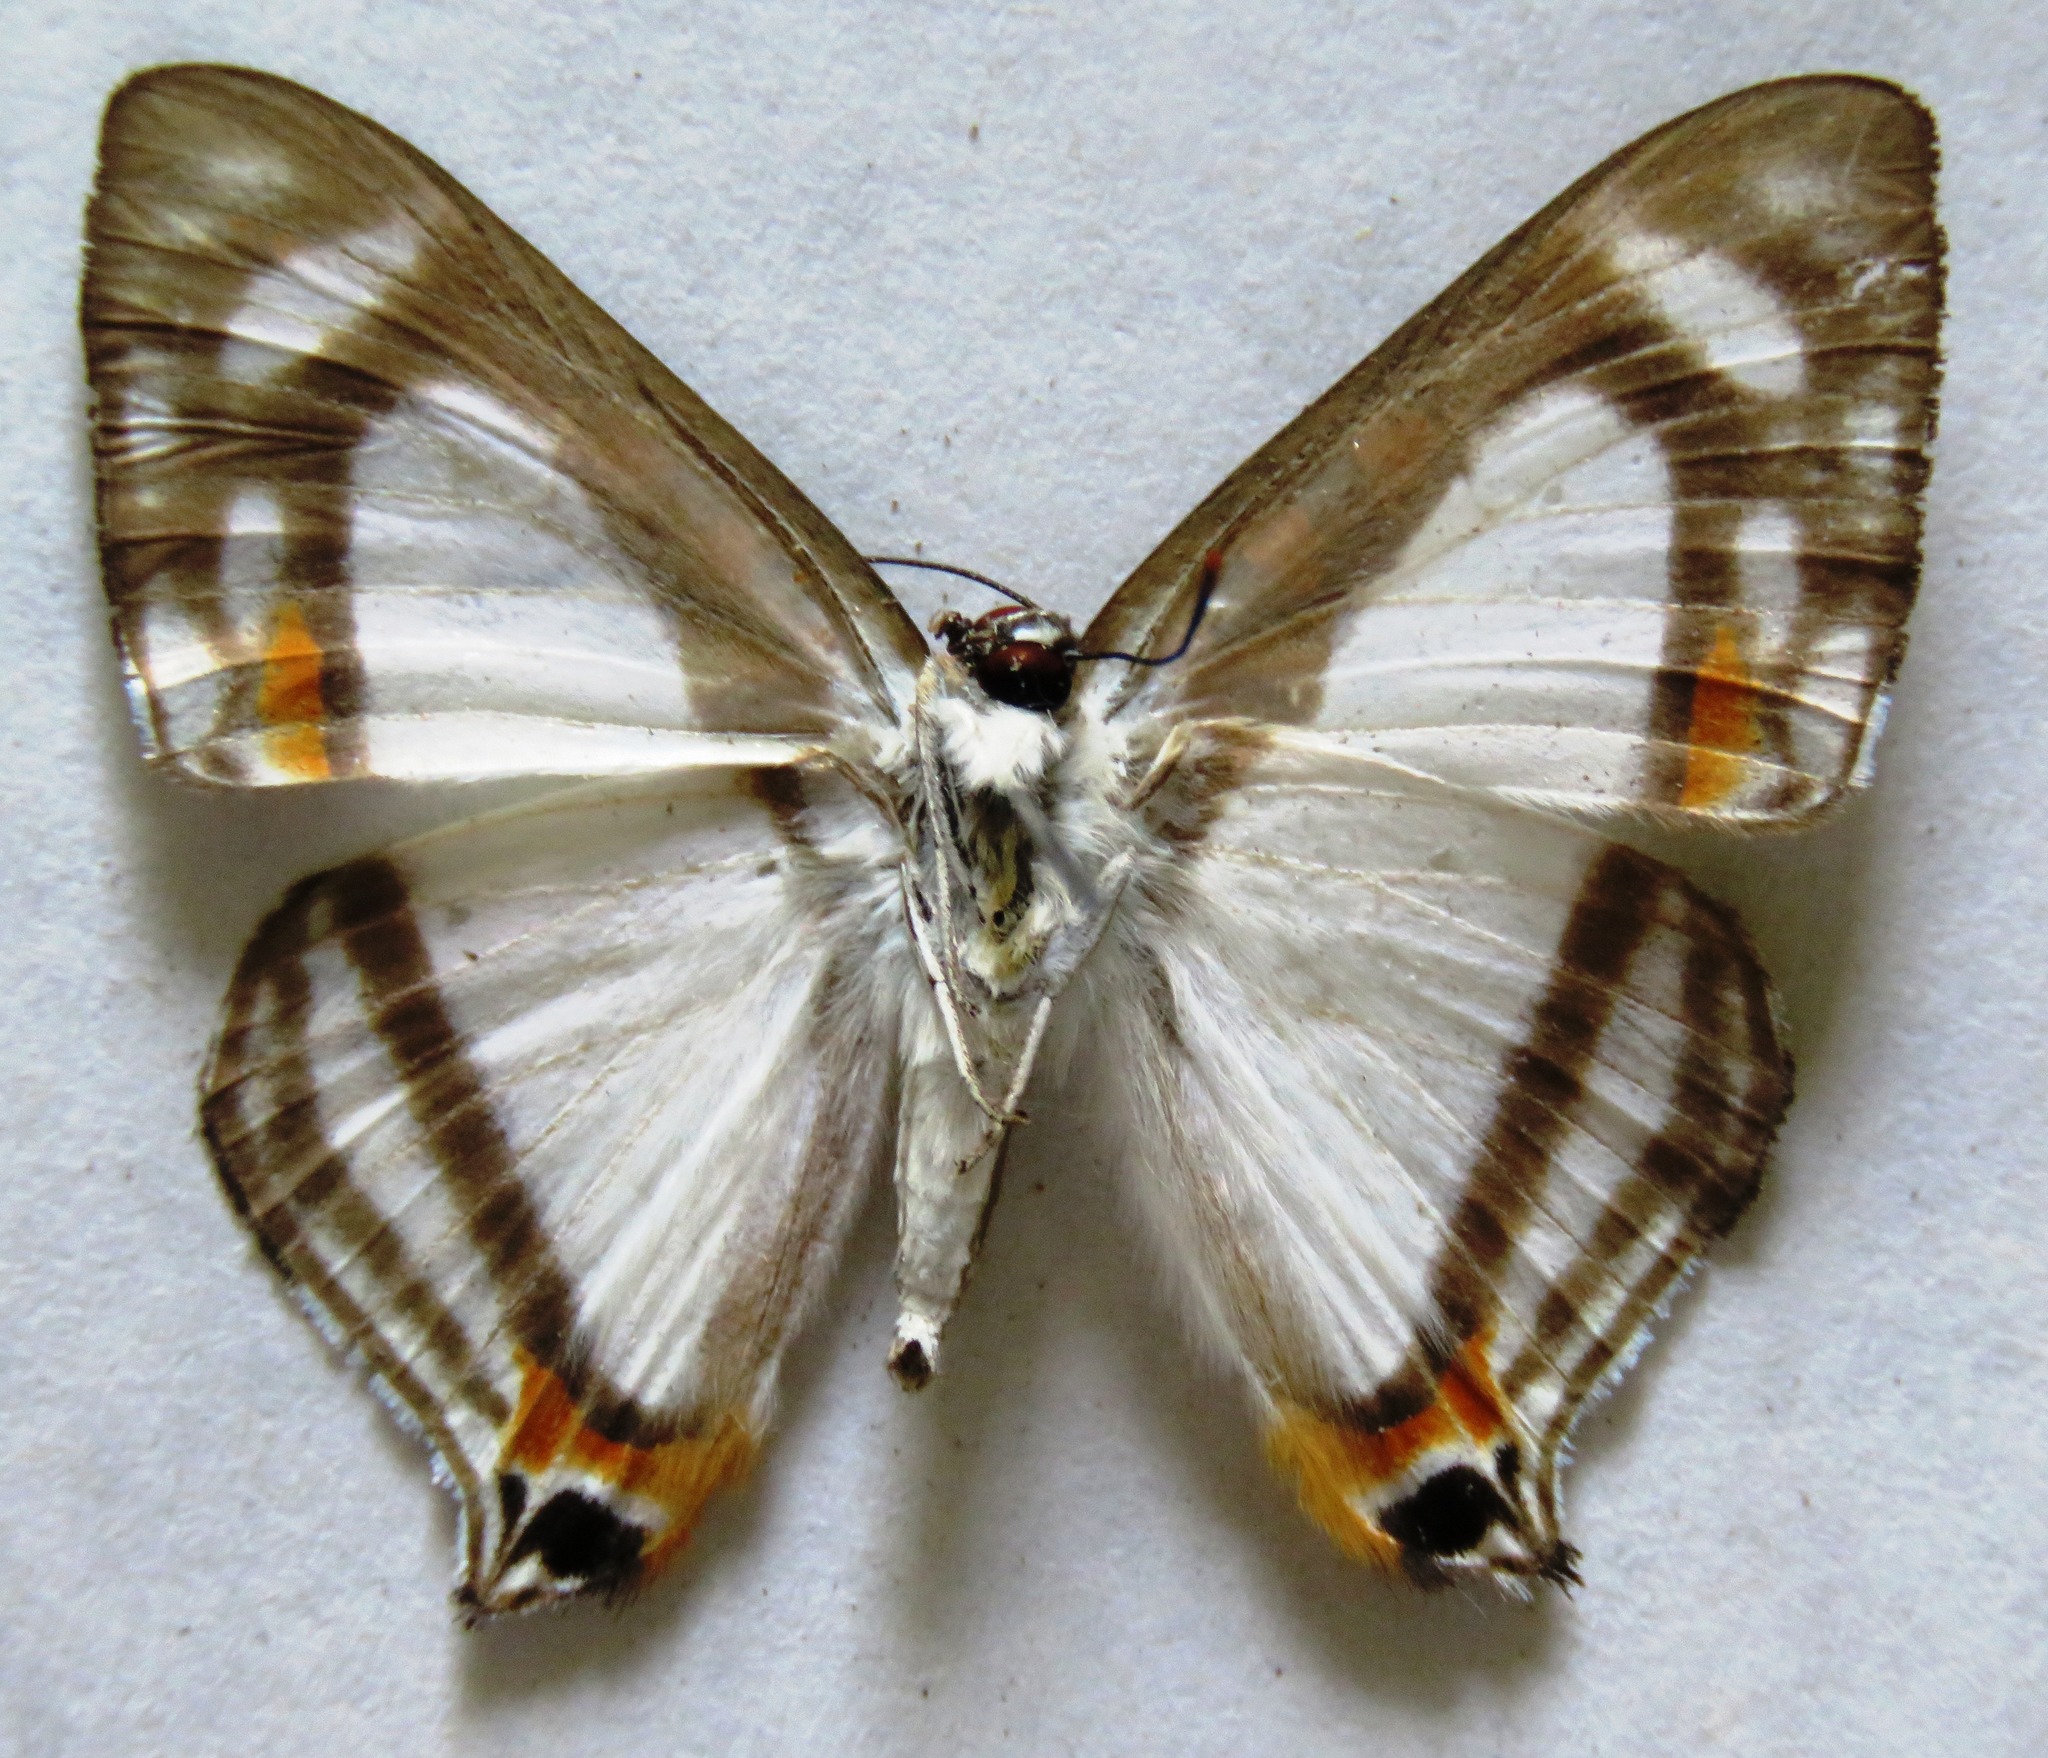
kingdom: Animalia
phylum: Arthropoda
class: Insecta
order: Lepidoptera
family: Riodinidae
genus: Thisbe
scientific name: Thisbe lycorias
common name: Banner metalmark
